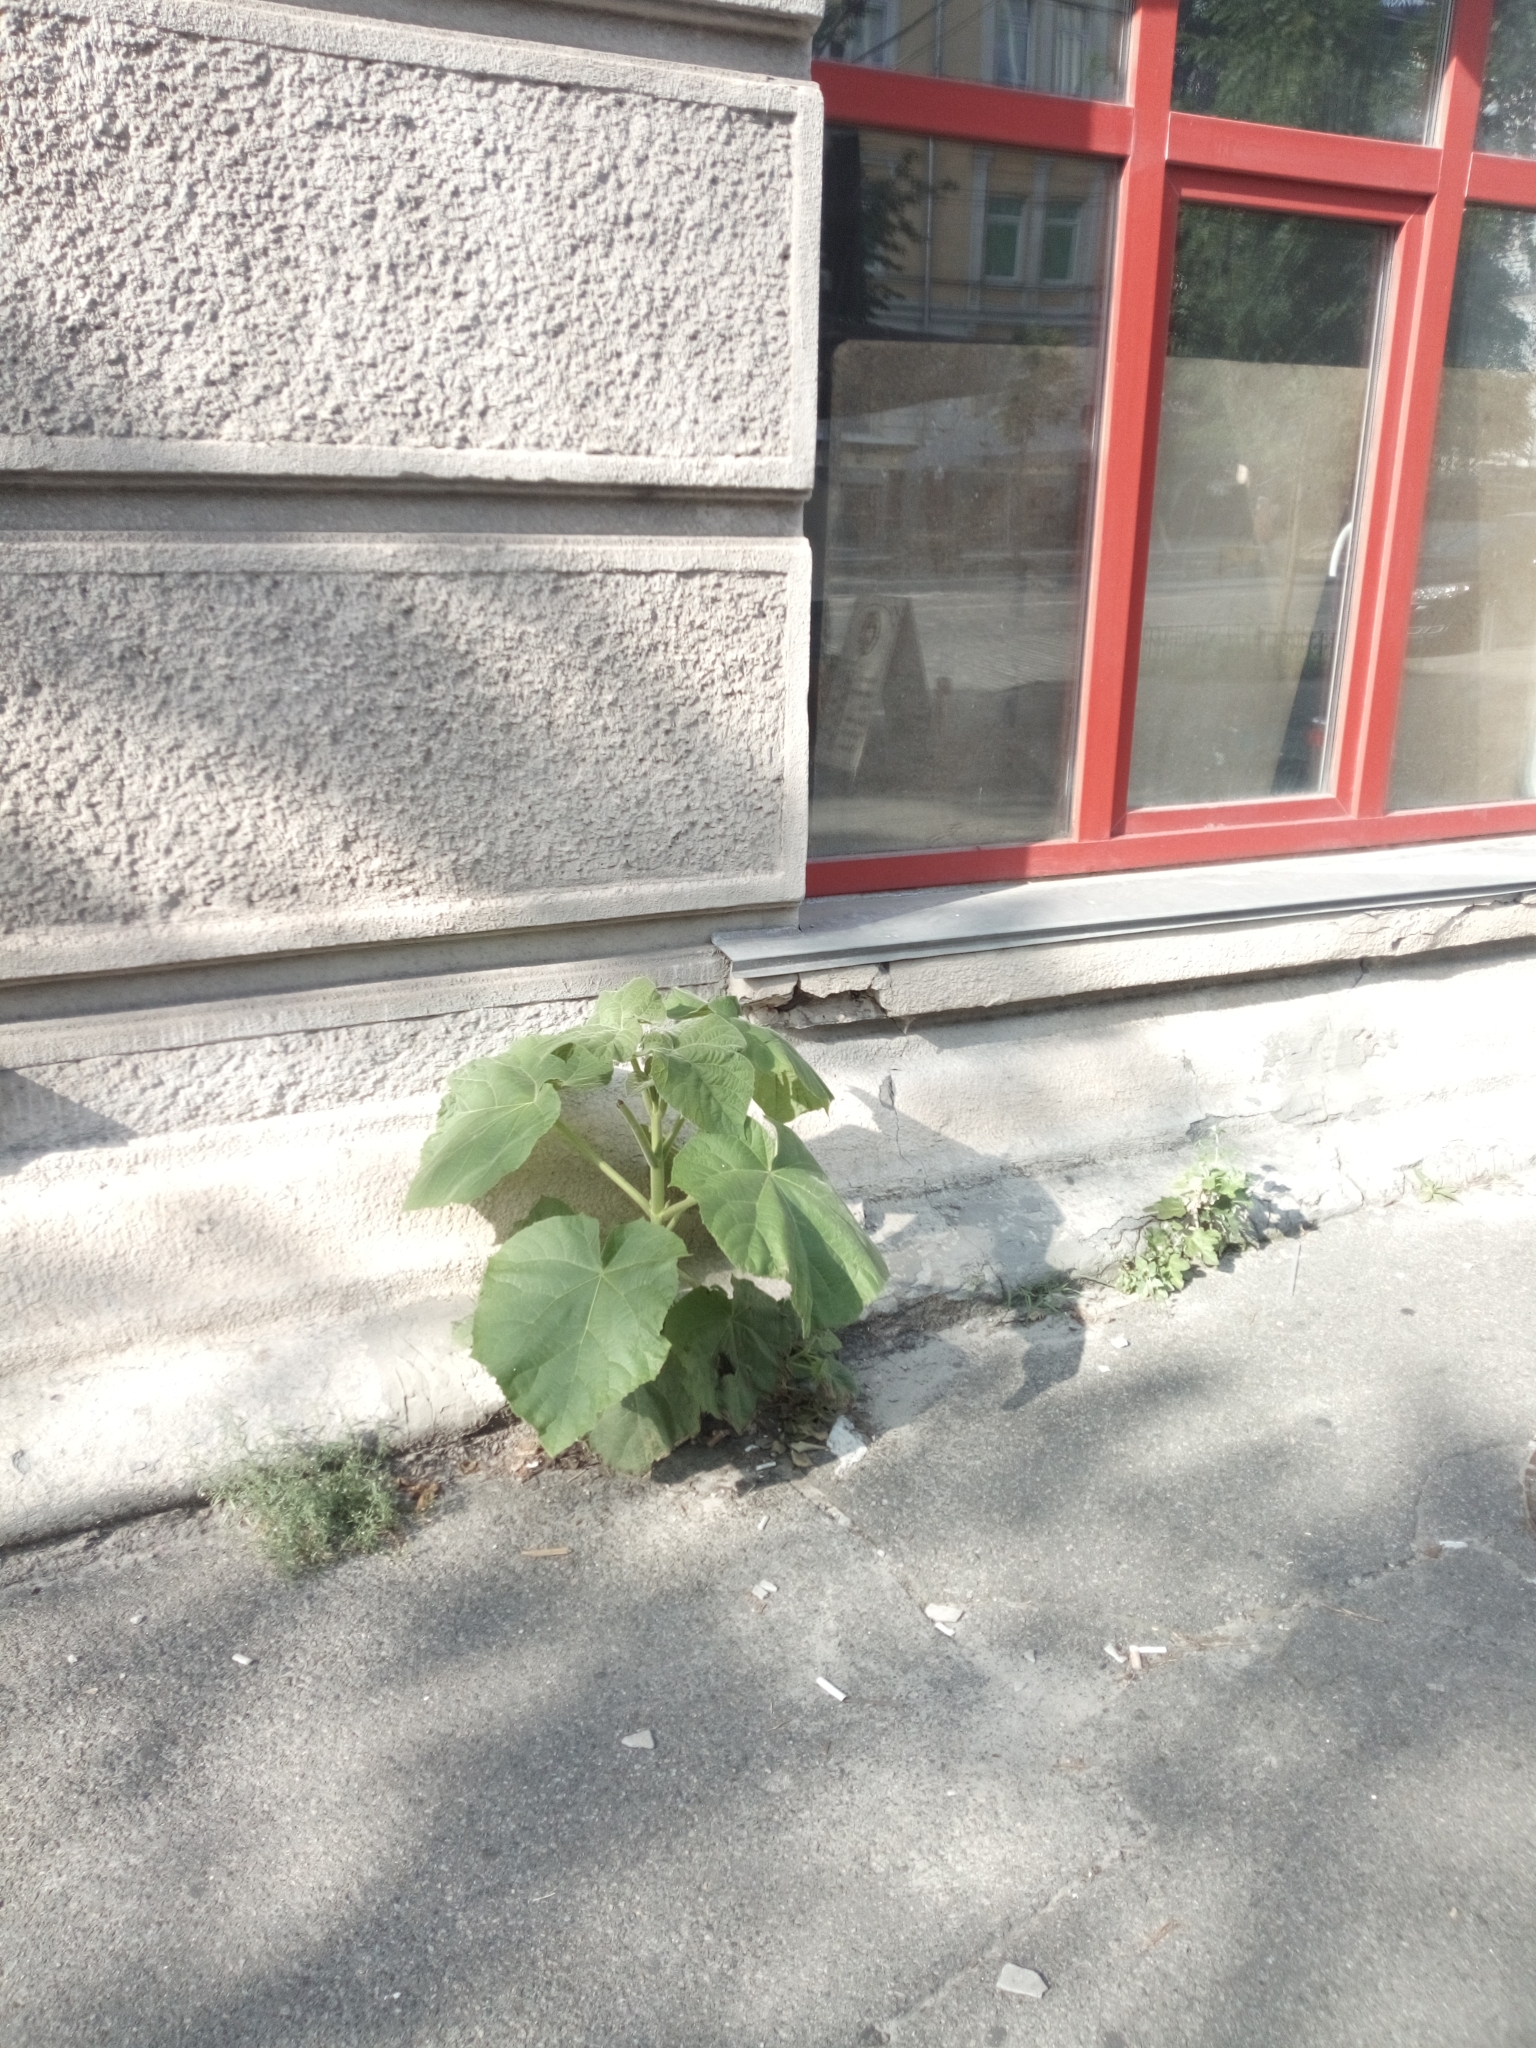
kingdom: Plantae
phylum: Tracheophyta
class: Magnoliopsida
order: Lamiales
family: Paulowniaceae
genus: Paulownia
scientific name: Paulownia tomentosa
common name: Foxglove-tree
